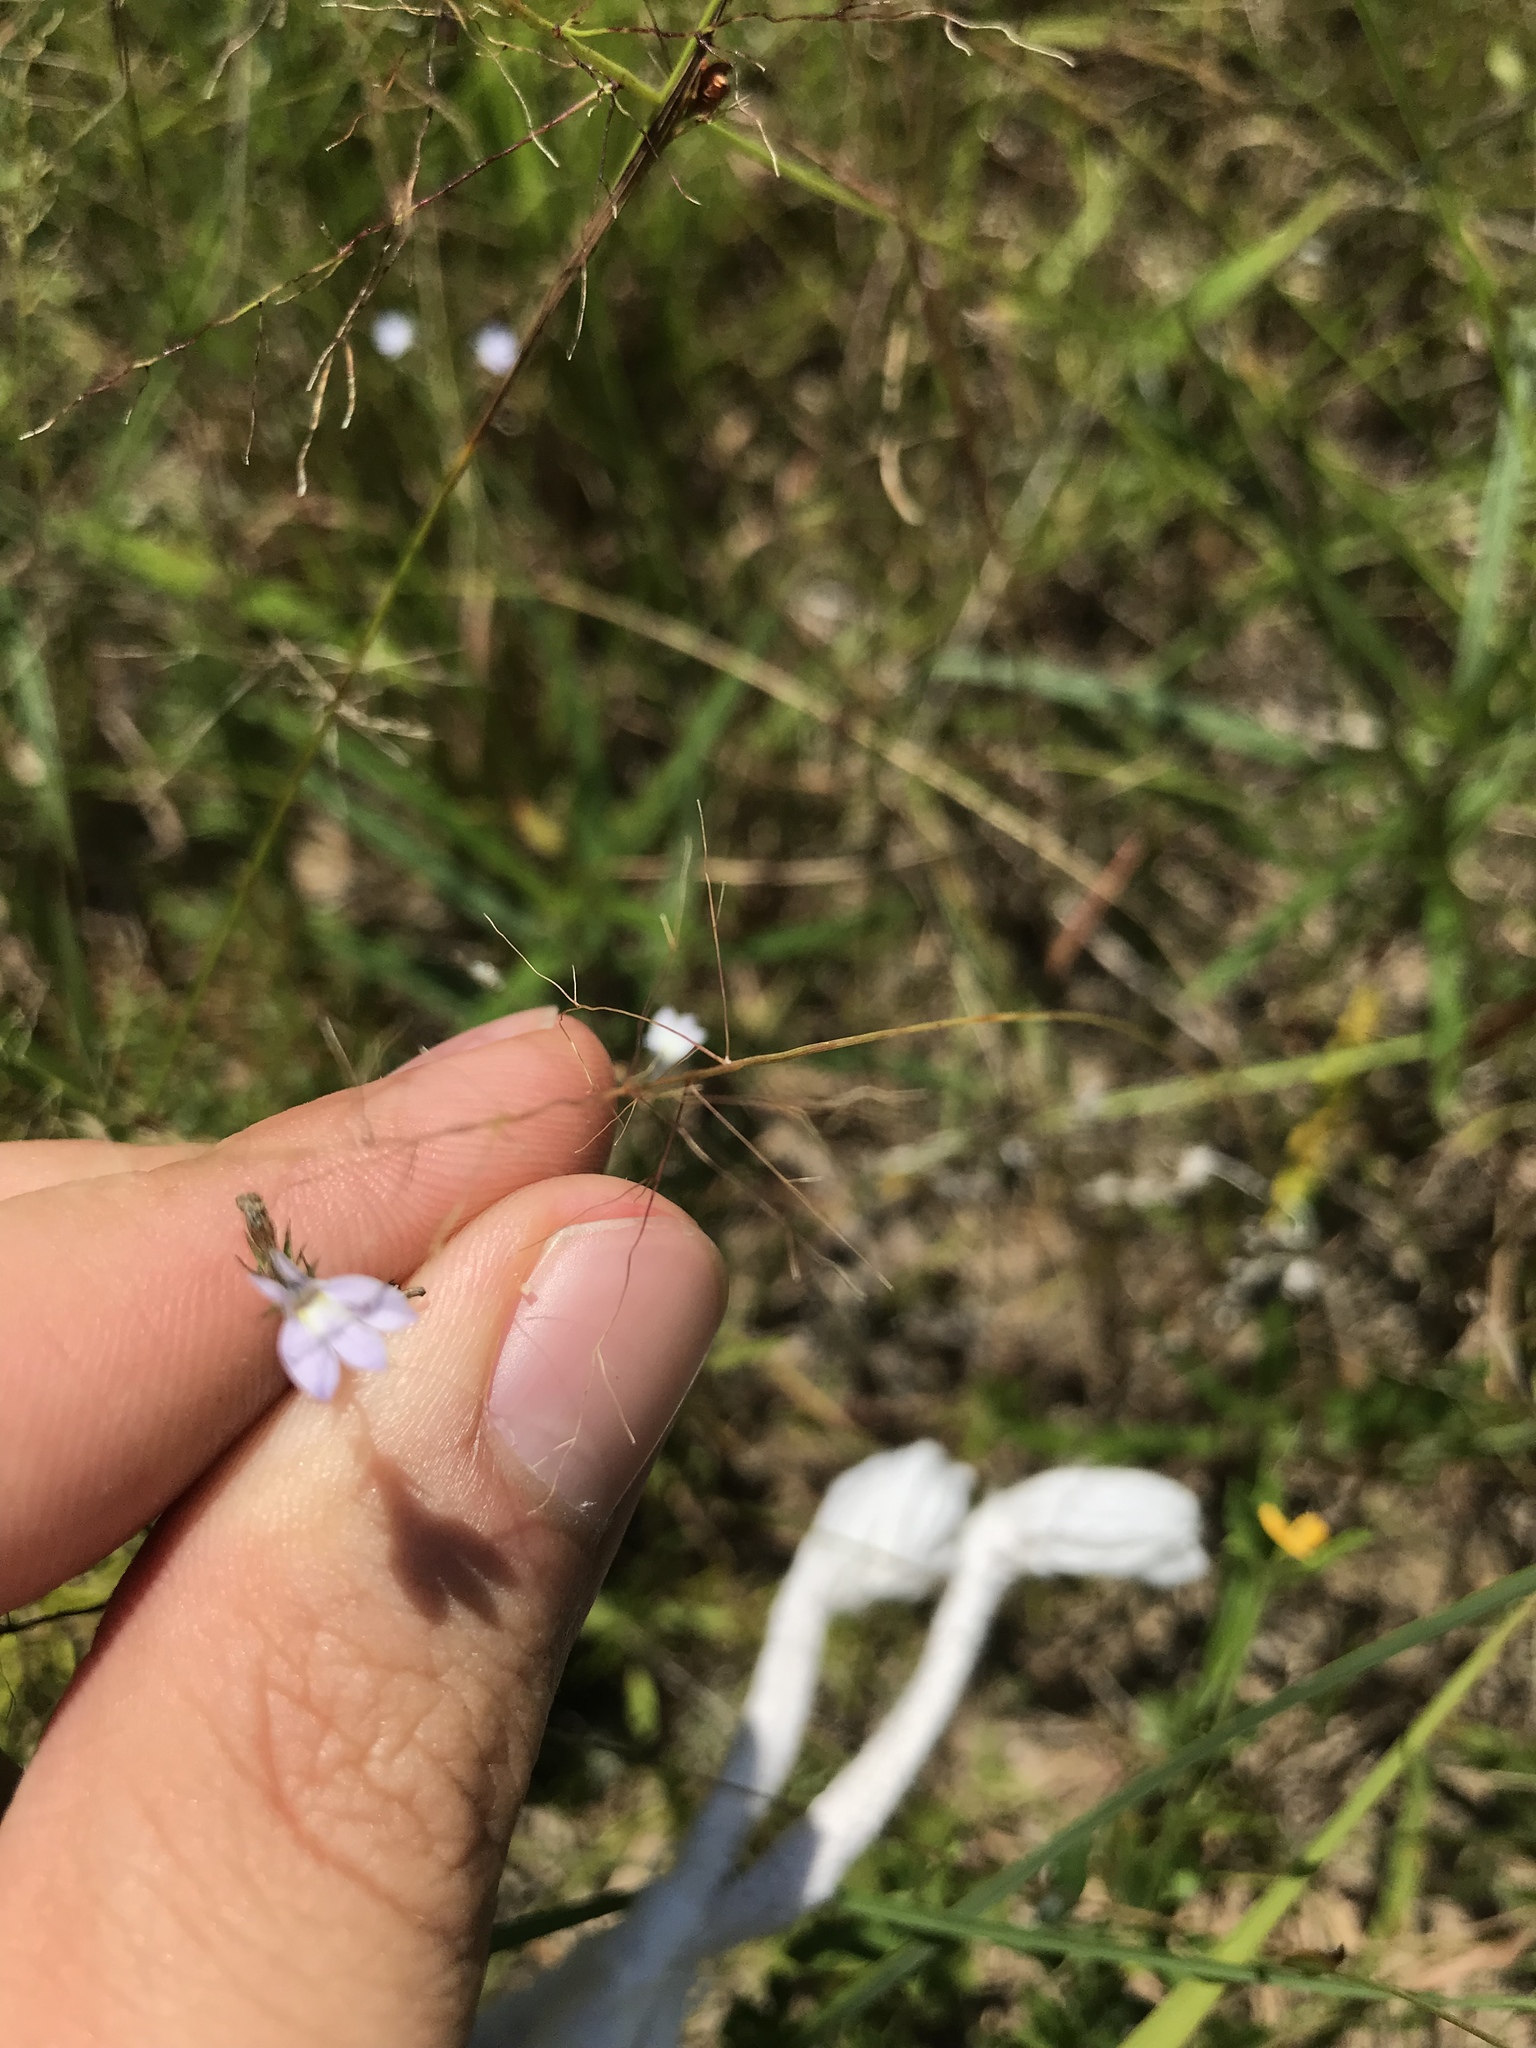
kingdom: Plantae
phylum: Tracheophyta
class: Magnoliopsida
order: Asterales
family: Campanulaceae
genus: Lobelia
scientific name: Lobelia nuttallii
